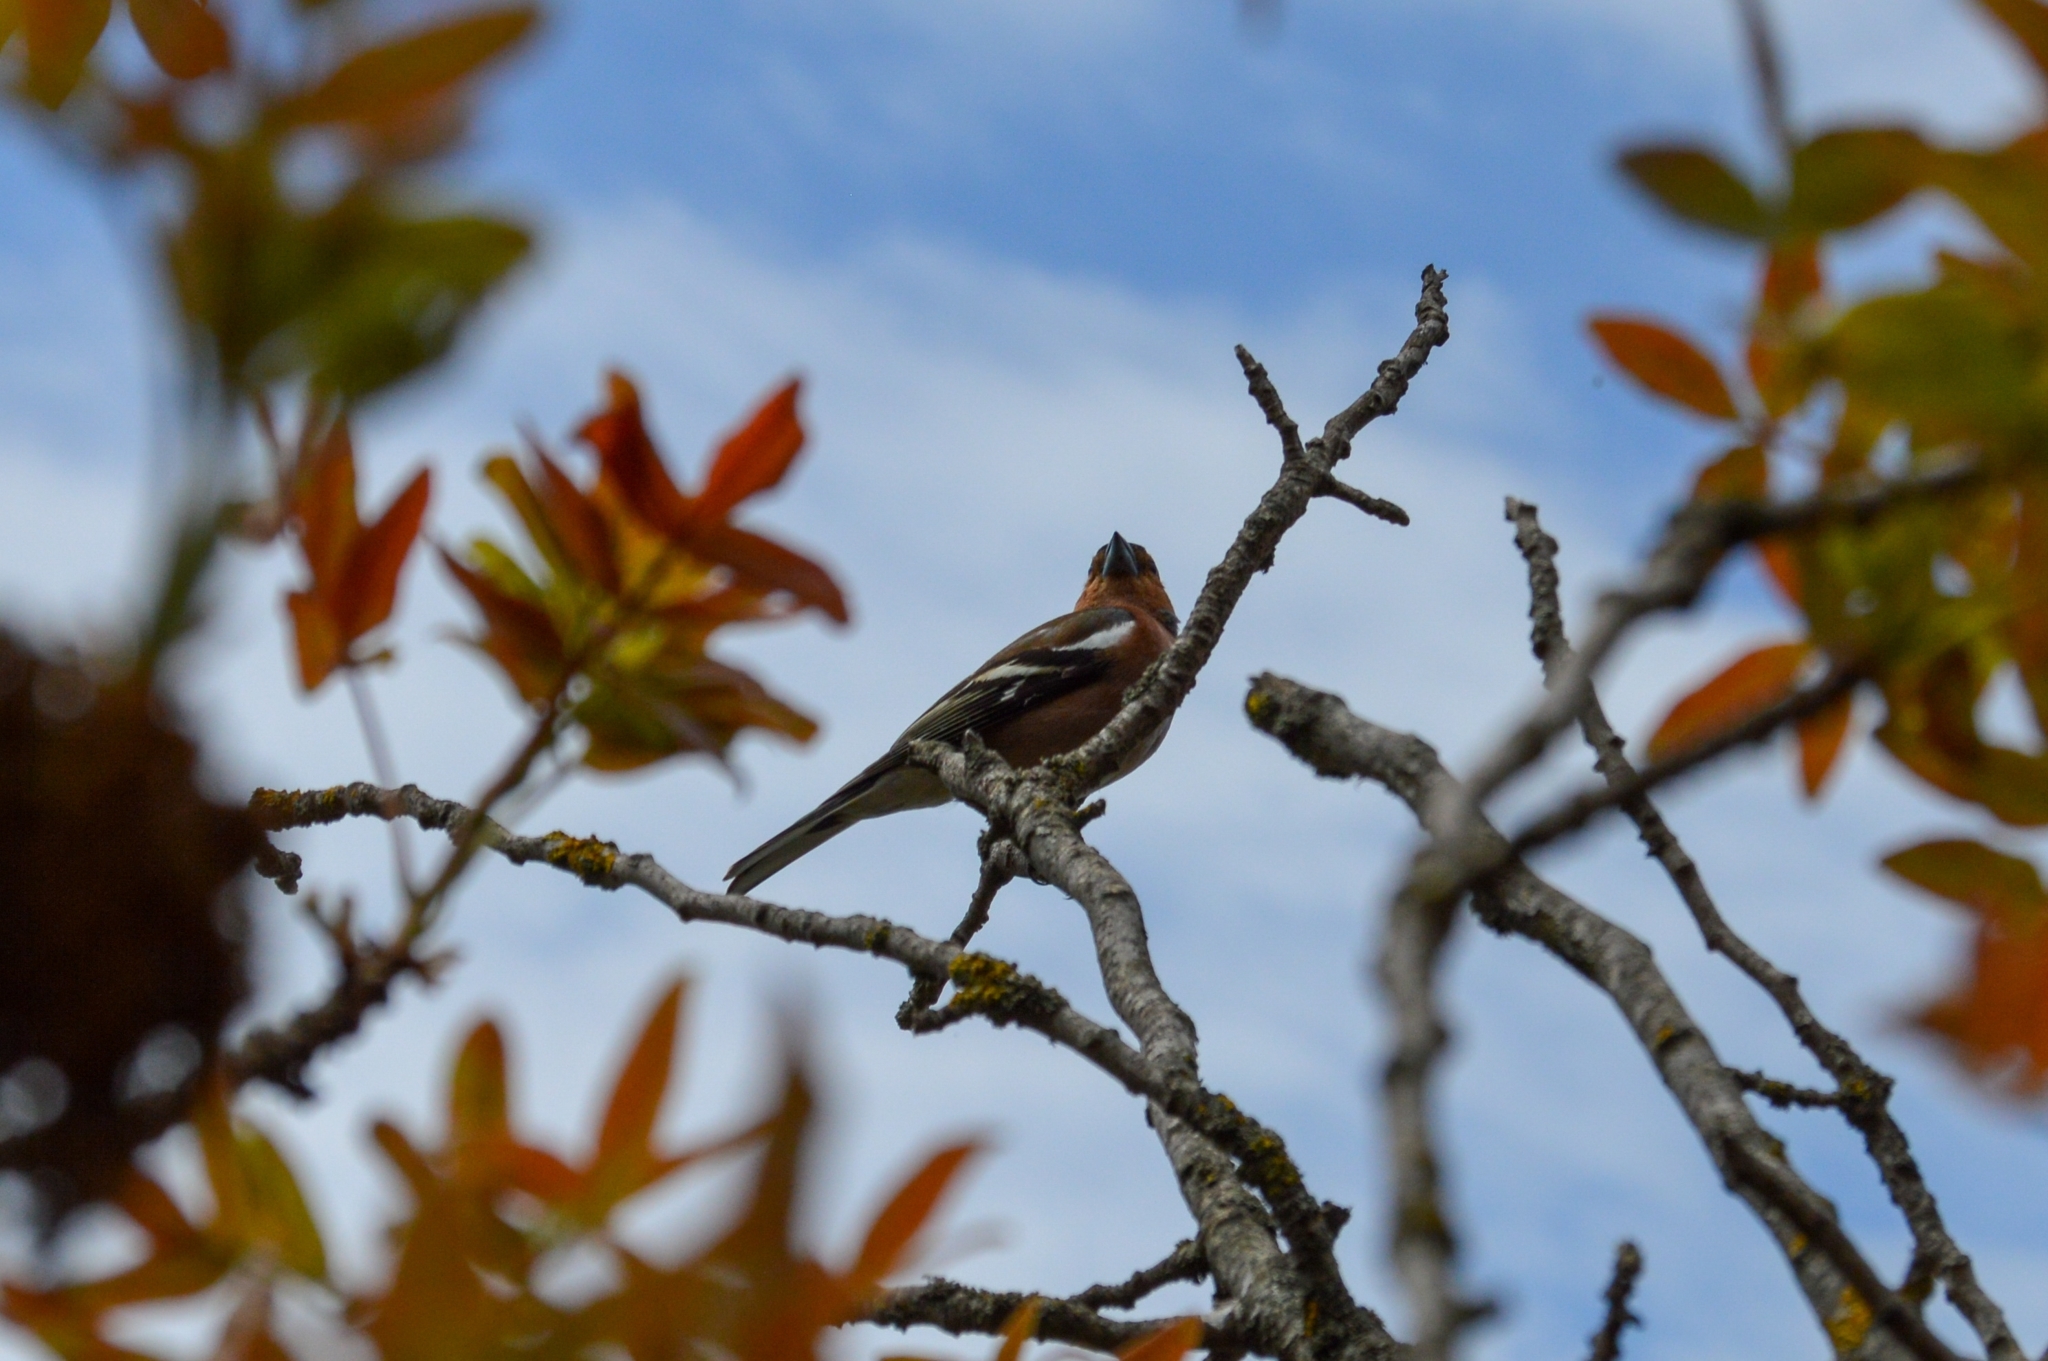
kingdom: Animalia
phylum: Chordata
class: Aves
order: Passeriformes
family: Fringillidae
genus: Fringilla
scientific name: Fringilla coelebs
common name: Common chaffinch
